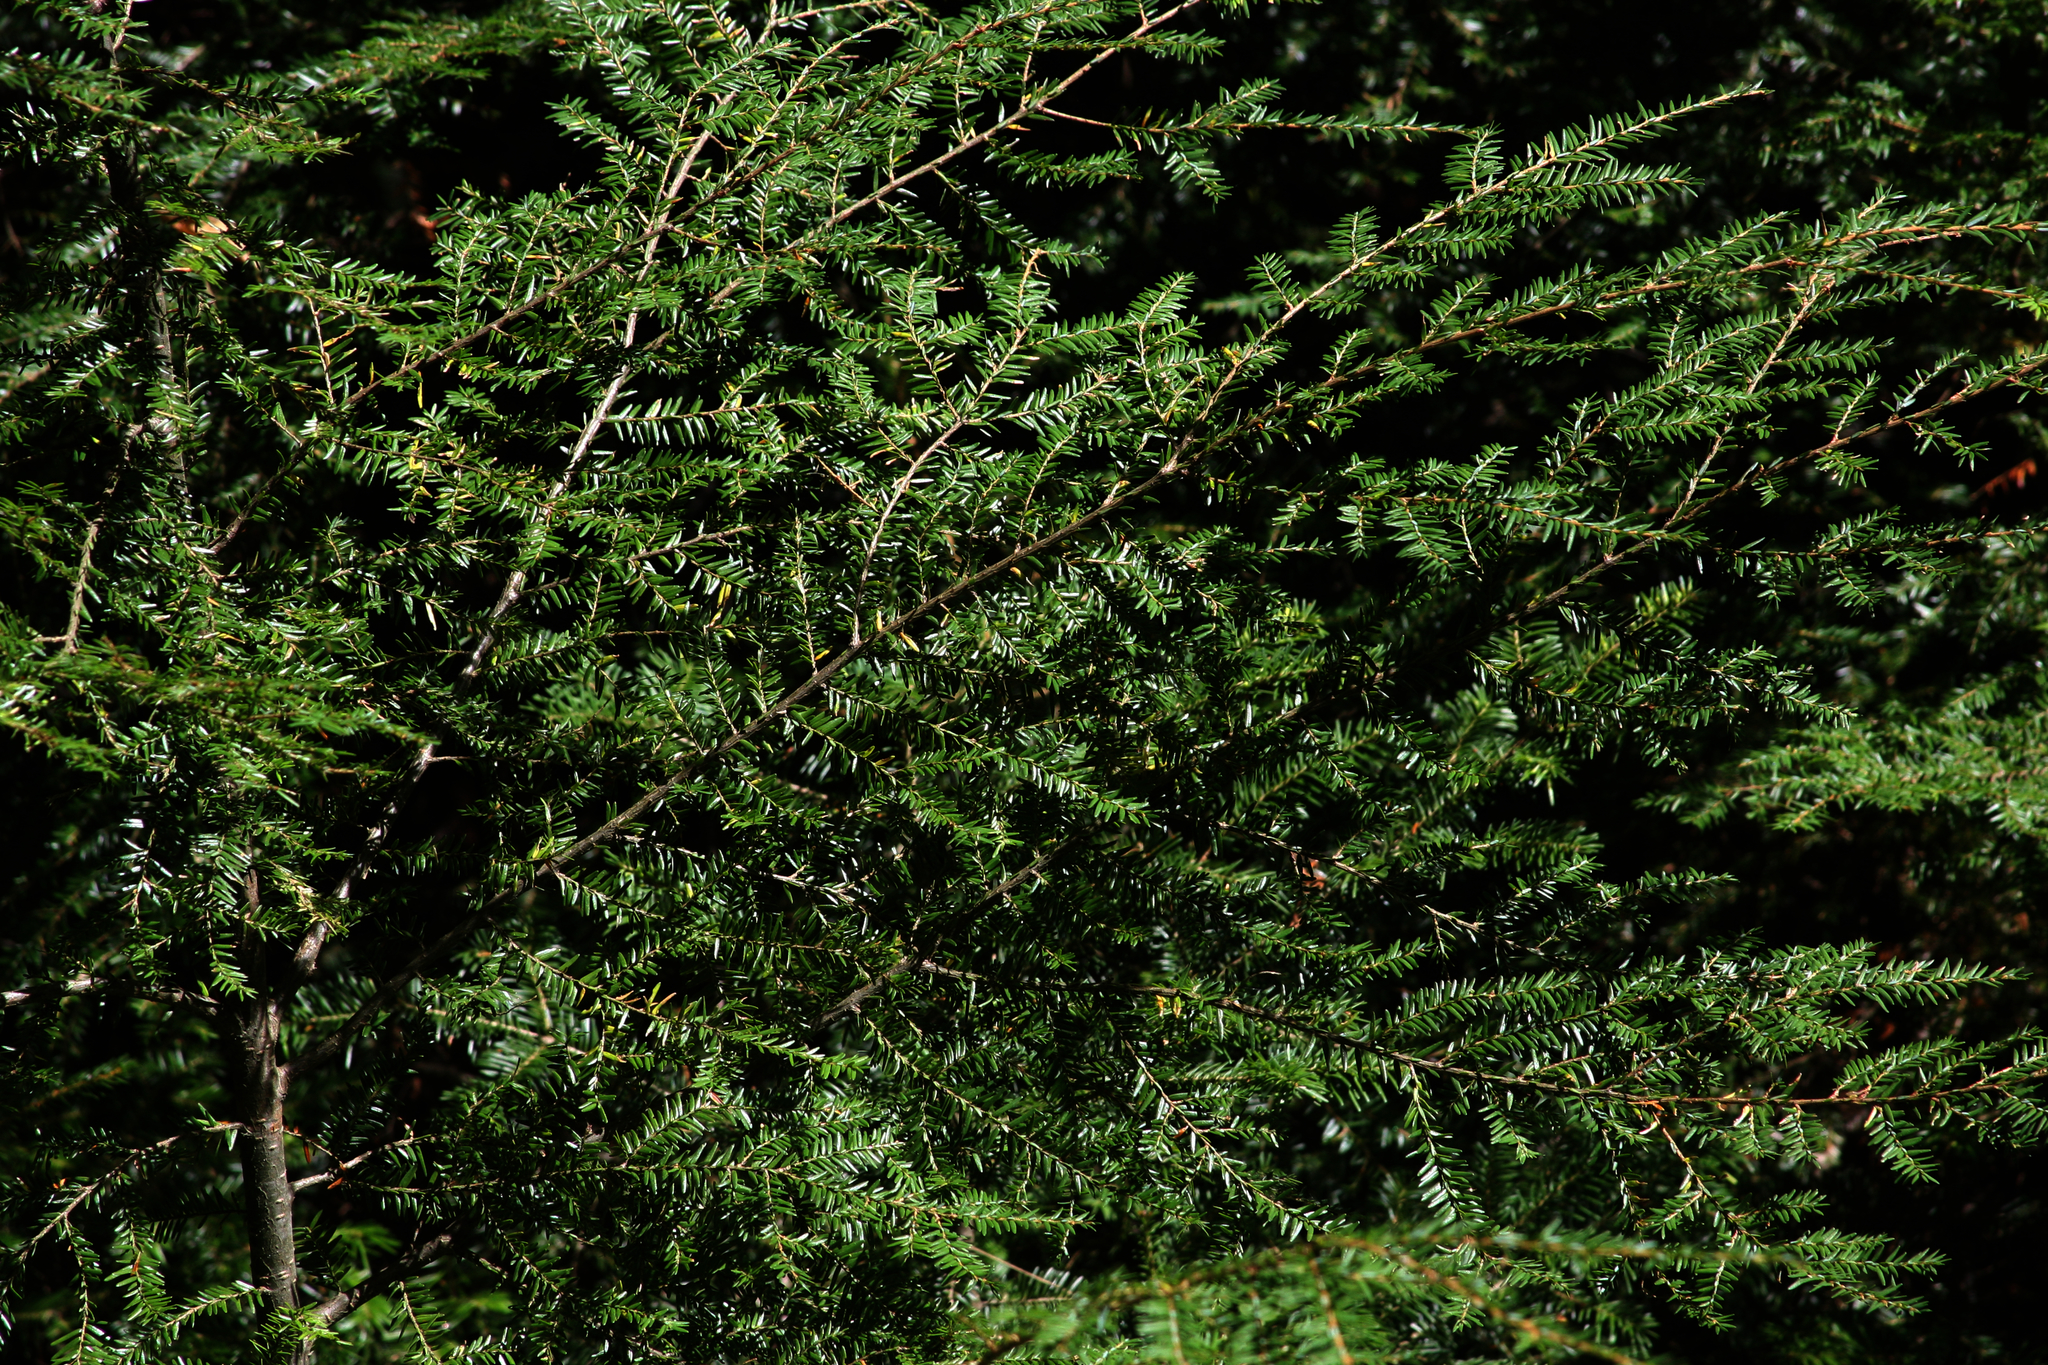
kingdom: Plantae
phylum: Tracheophyta
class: Pinopsida
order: Pinales
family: Pinaceae
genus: Tsuga
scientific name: Tsuga canadensis
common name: Eastern hemlock
